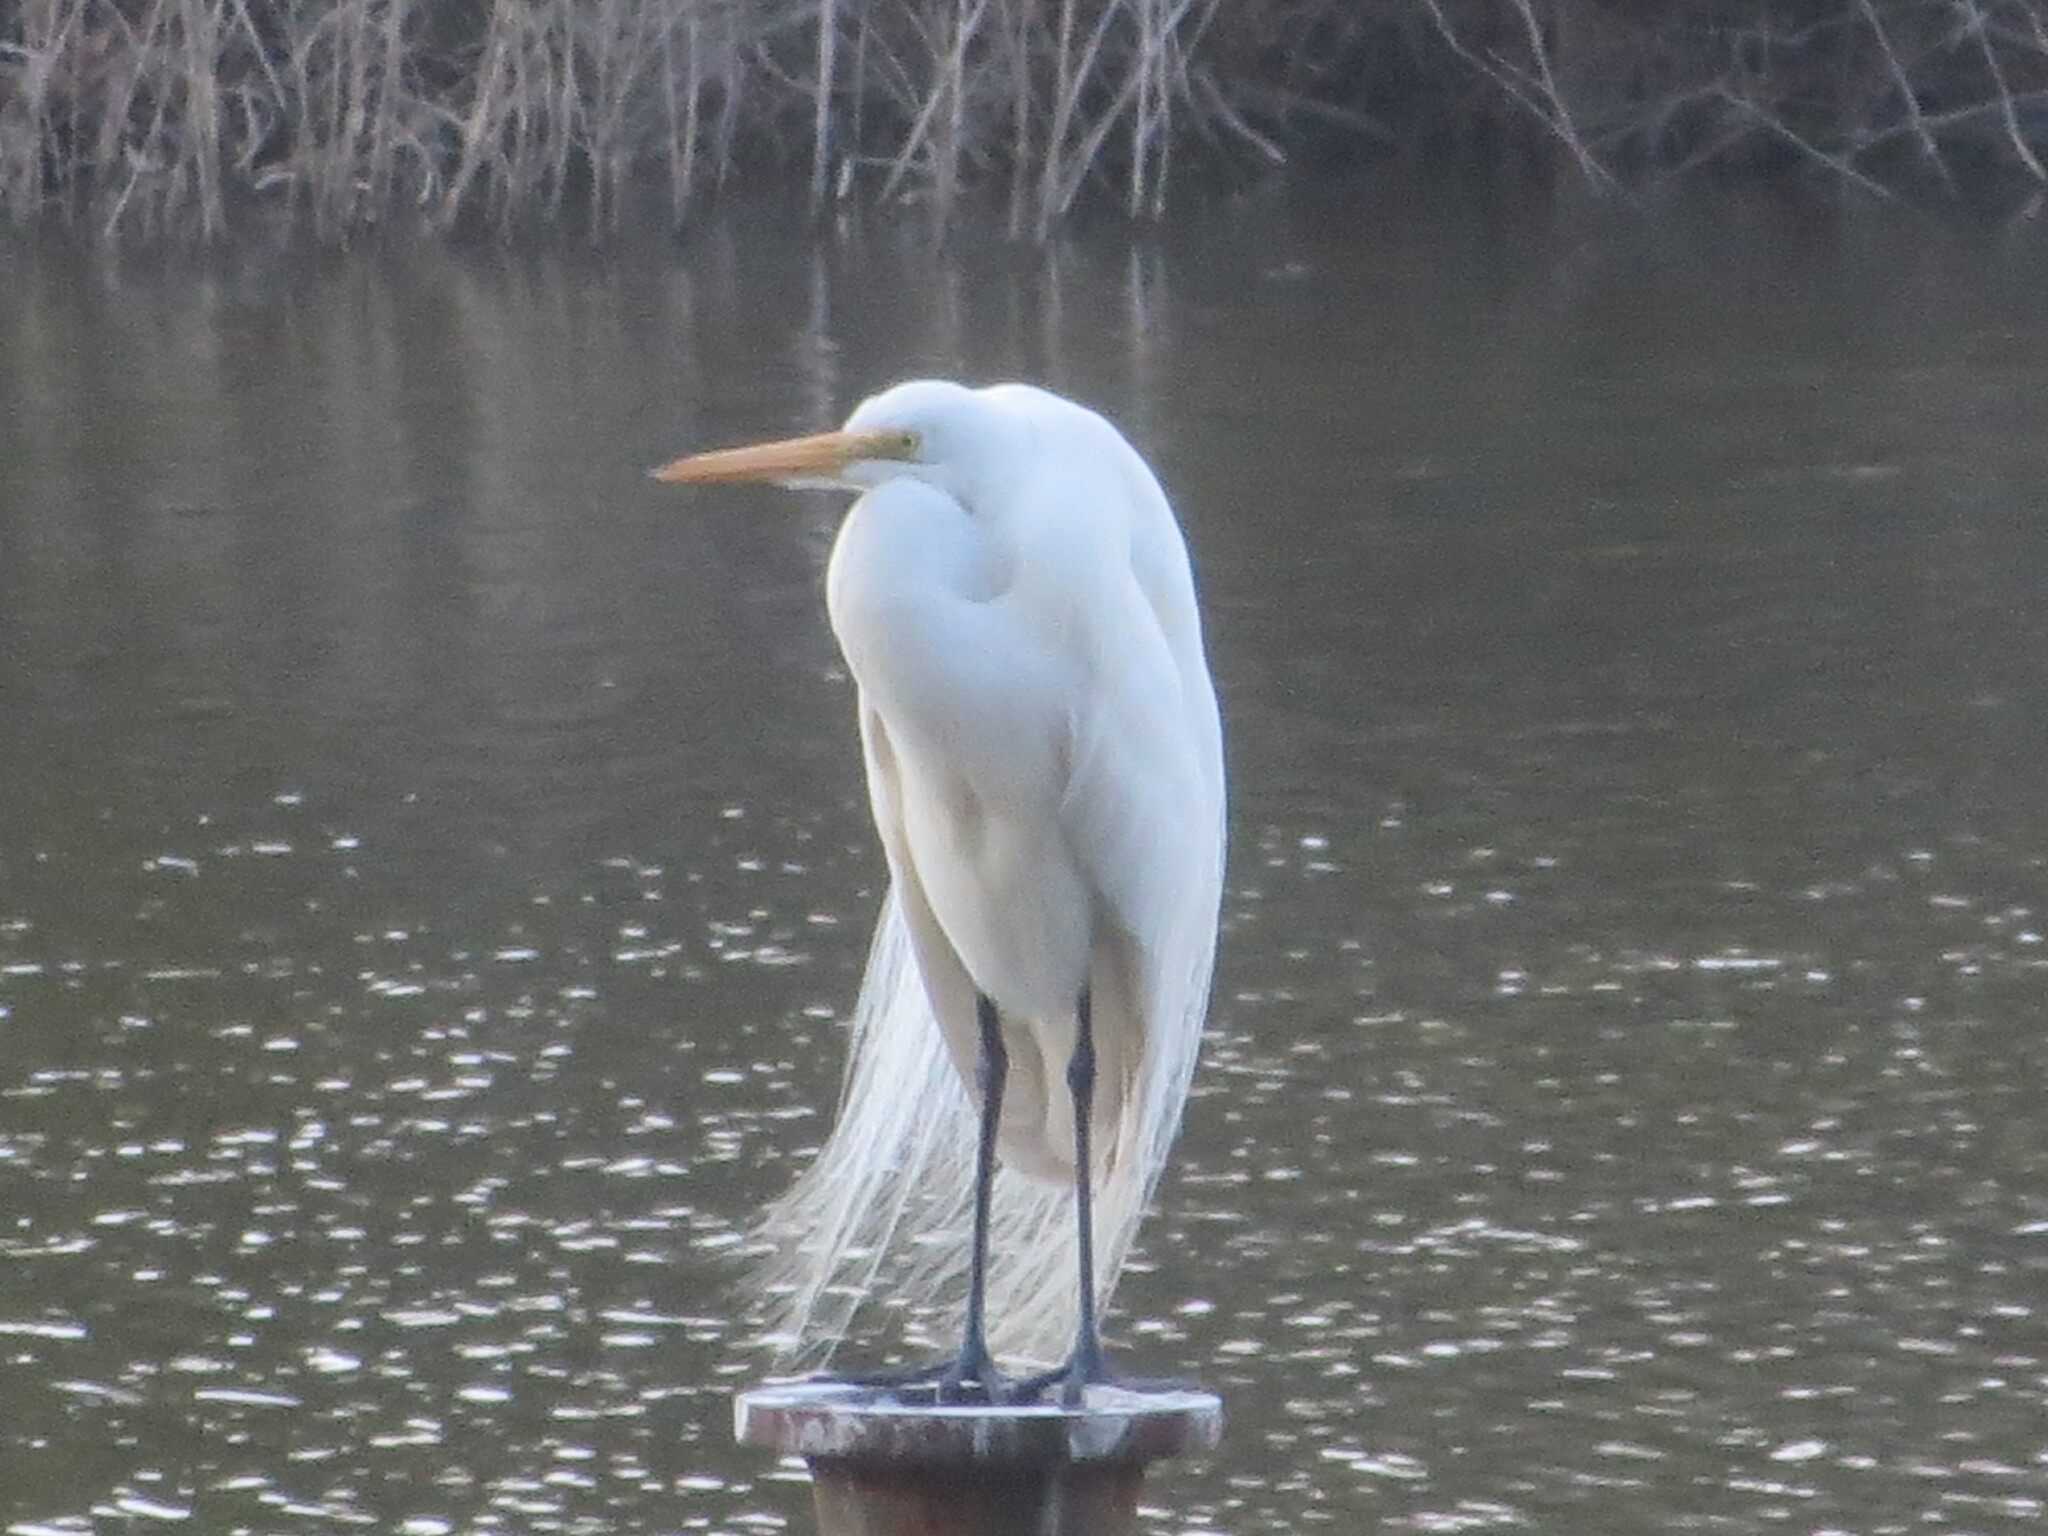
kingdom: Animalia
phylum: Chordata
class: Aves
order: Pelecaniformes
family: Ardeidae
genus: Ardea
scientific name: Ardea alba
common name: Great egret
